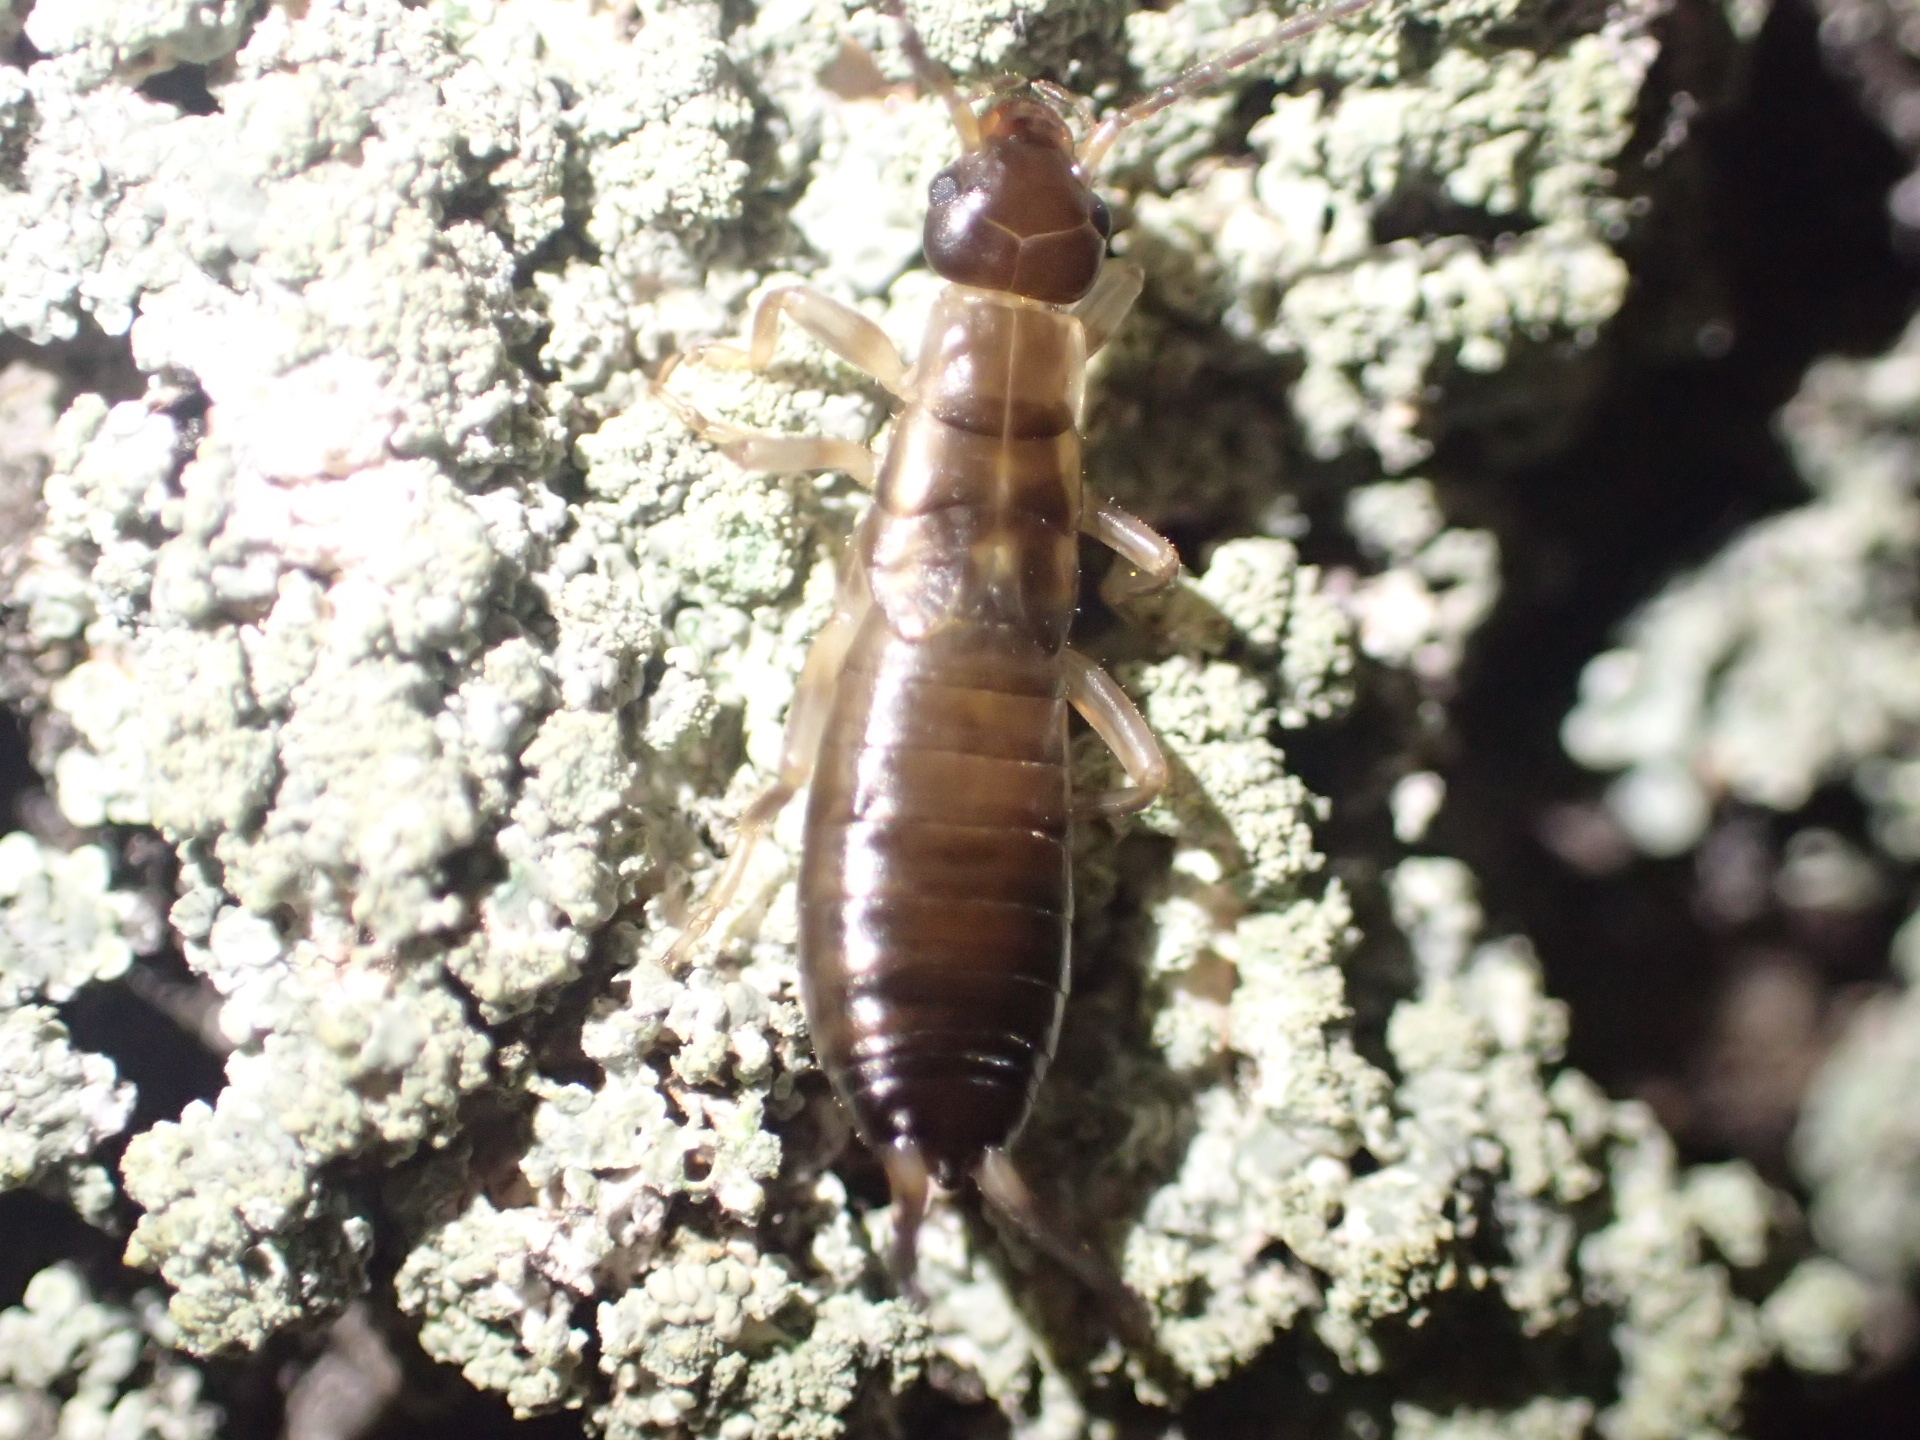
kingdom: Animalia
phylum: Arthropoda
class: Insecta
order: Dermaptera
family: Forficulidae
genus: Forficula
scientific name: Forficula dentata
